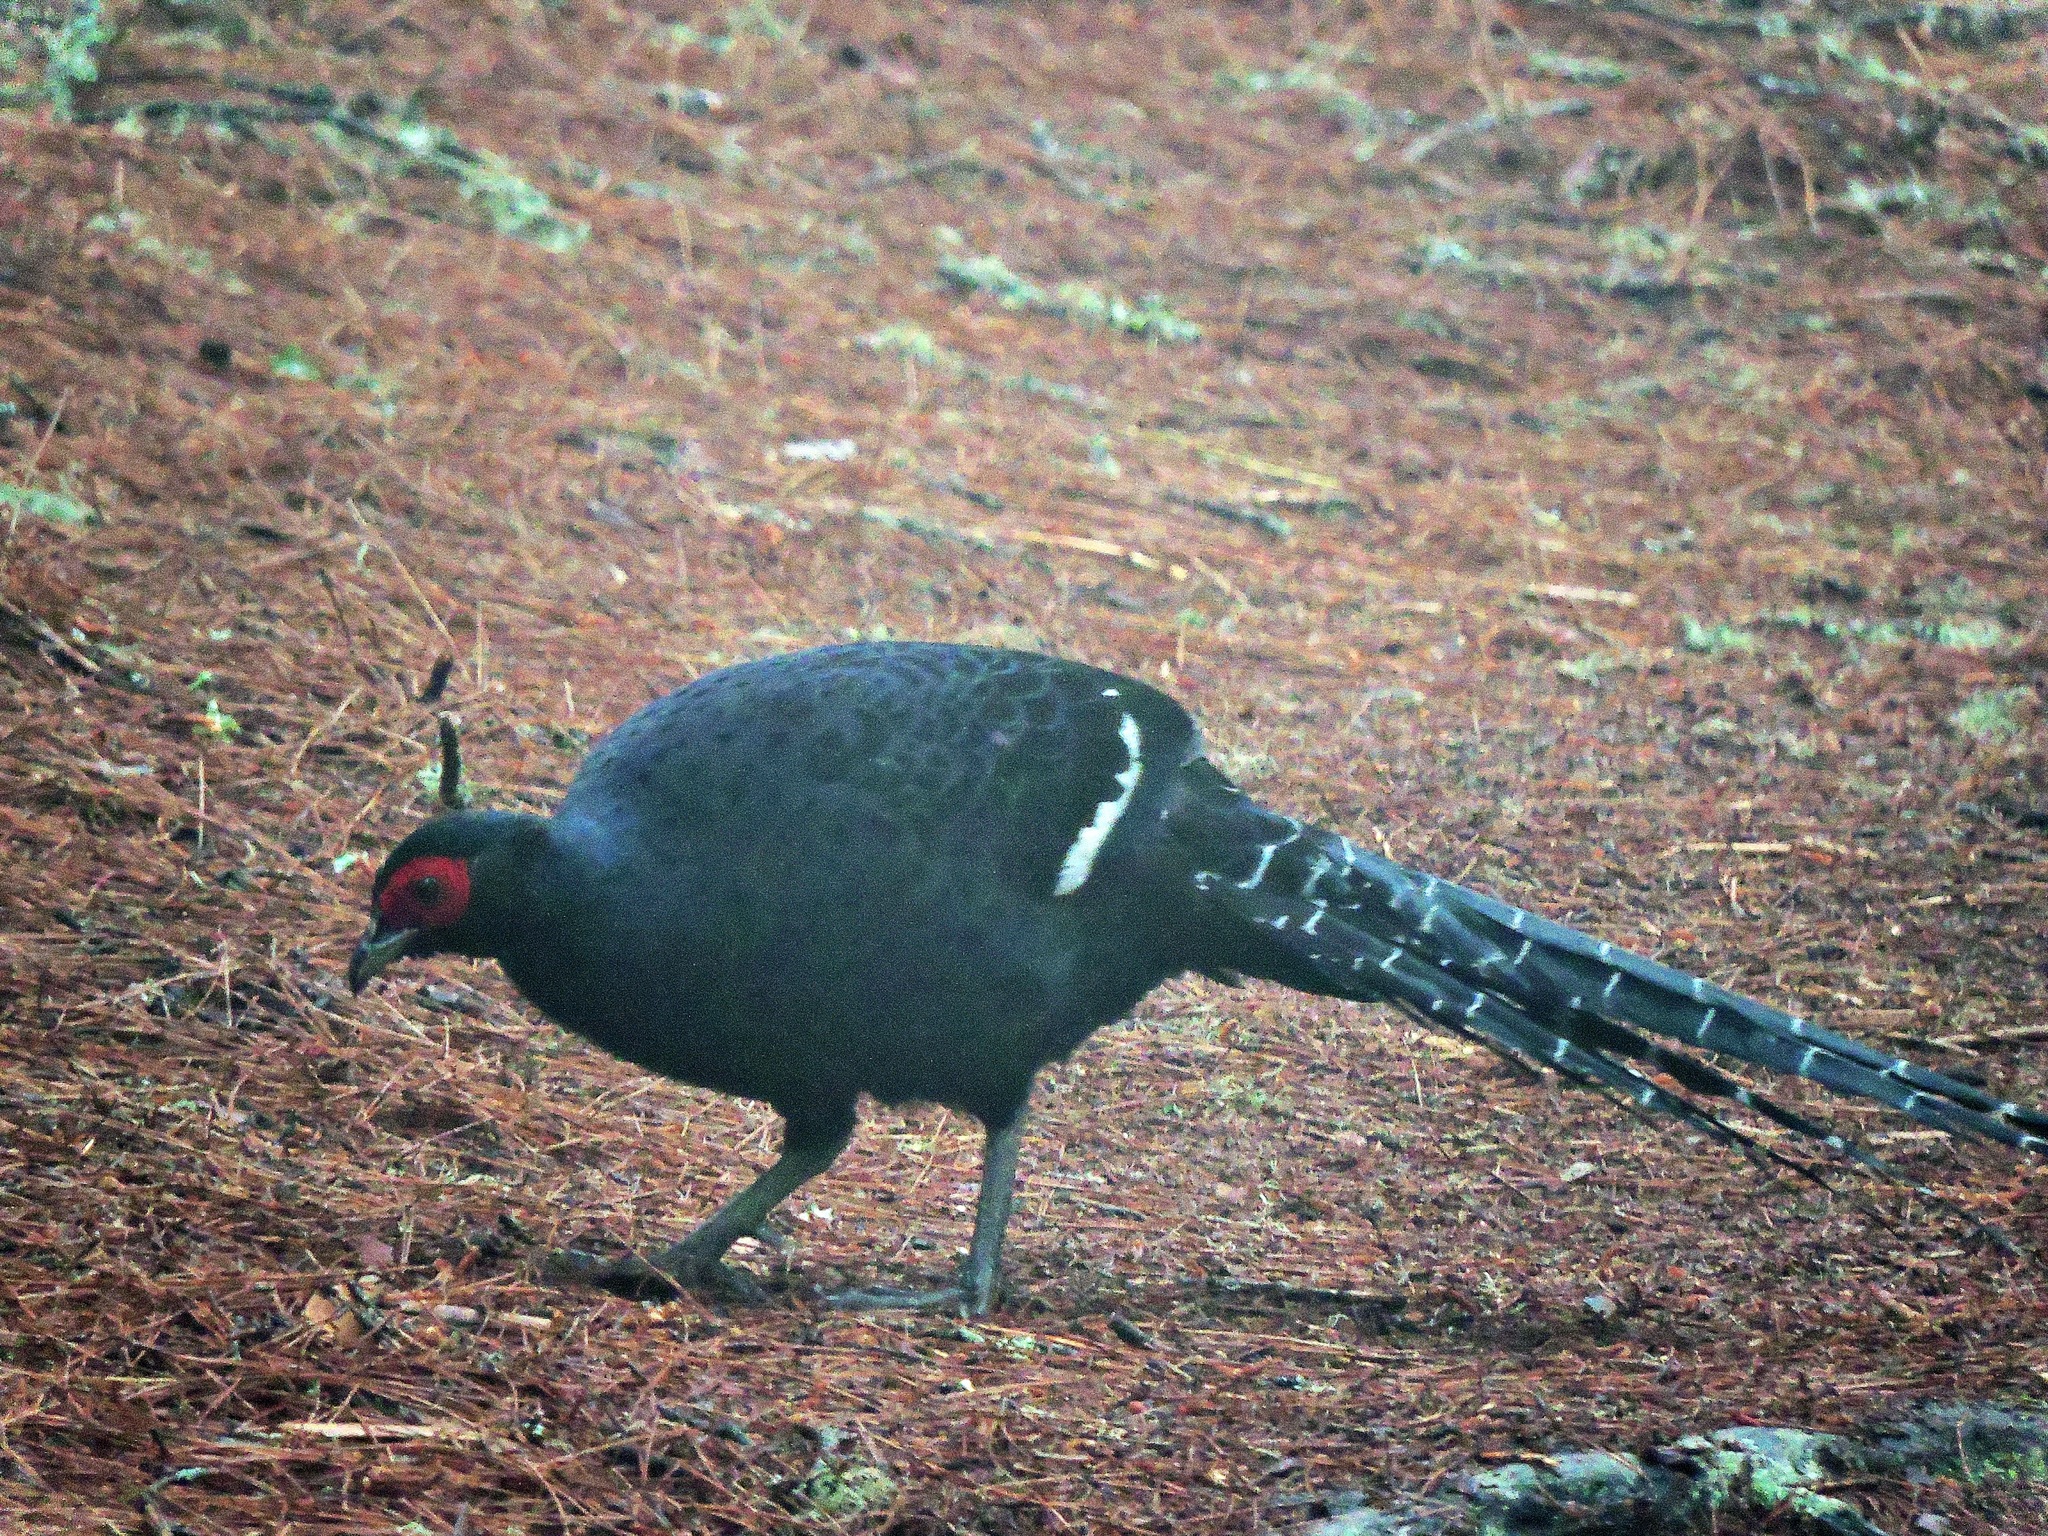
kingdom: Animalia
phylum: Chordata
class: Aves
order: Galliformes
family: Phasianidae
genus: Syrmaticus
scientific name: Syrmaticus mikado
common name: Mikado pheasant
